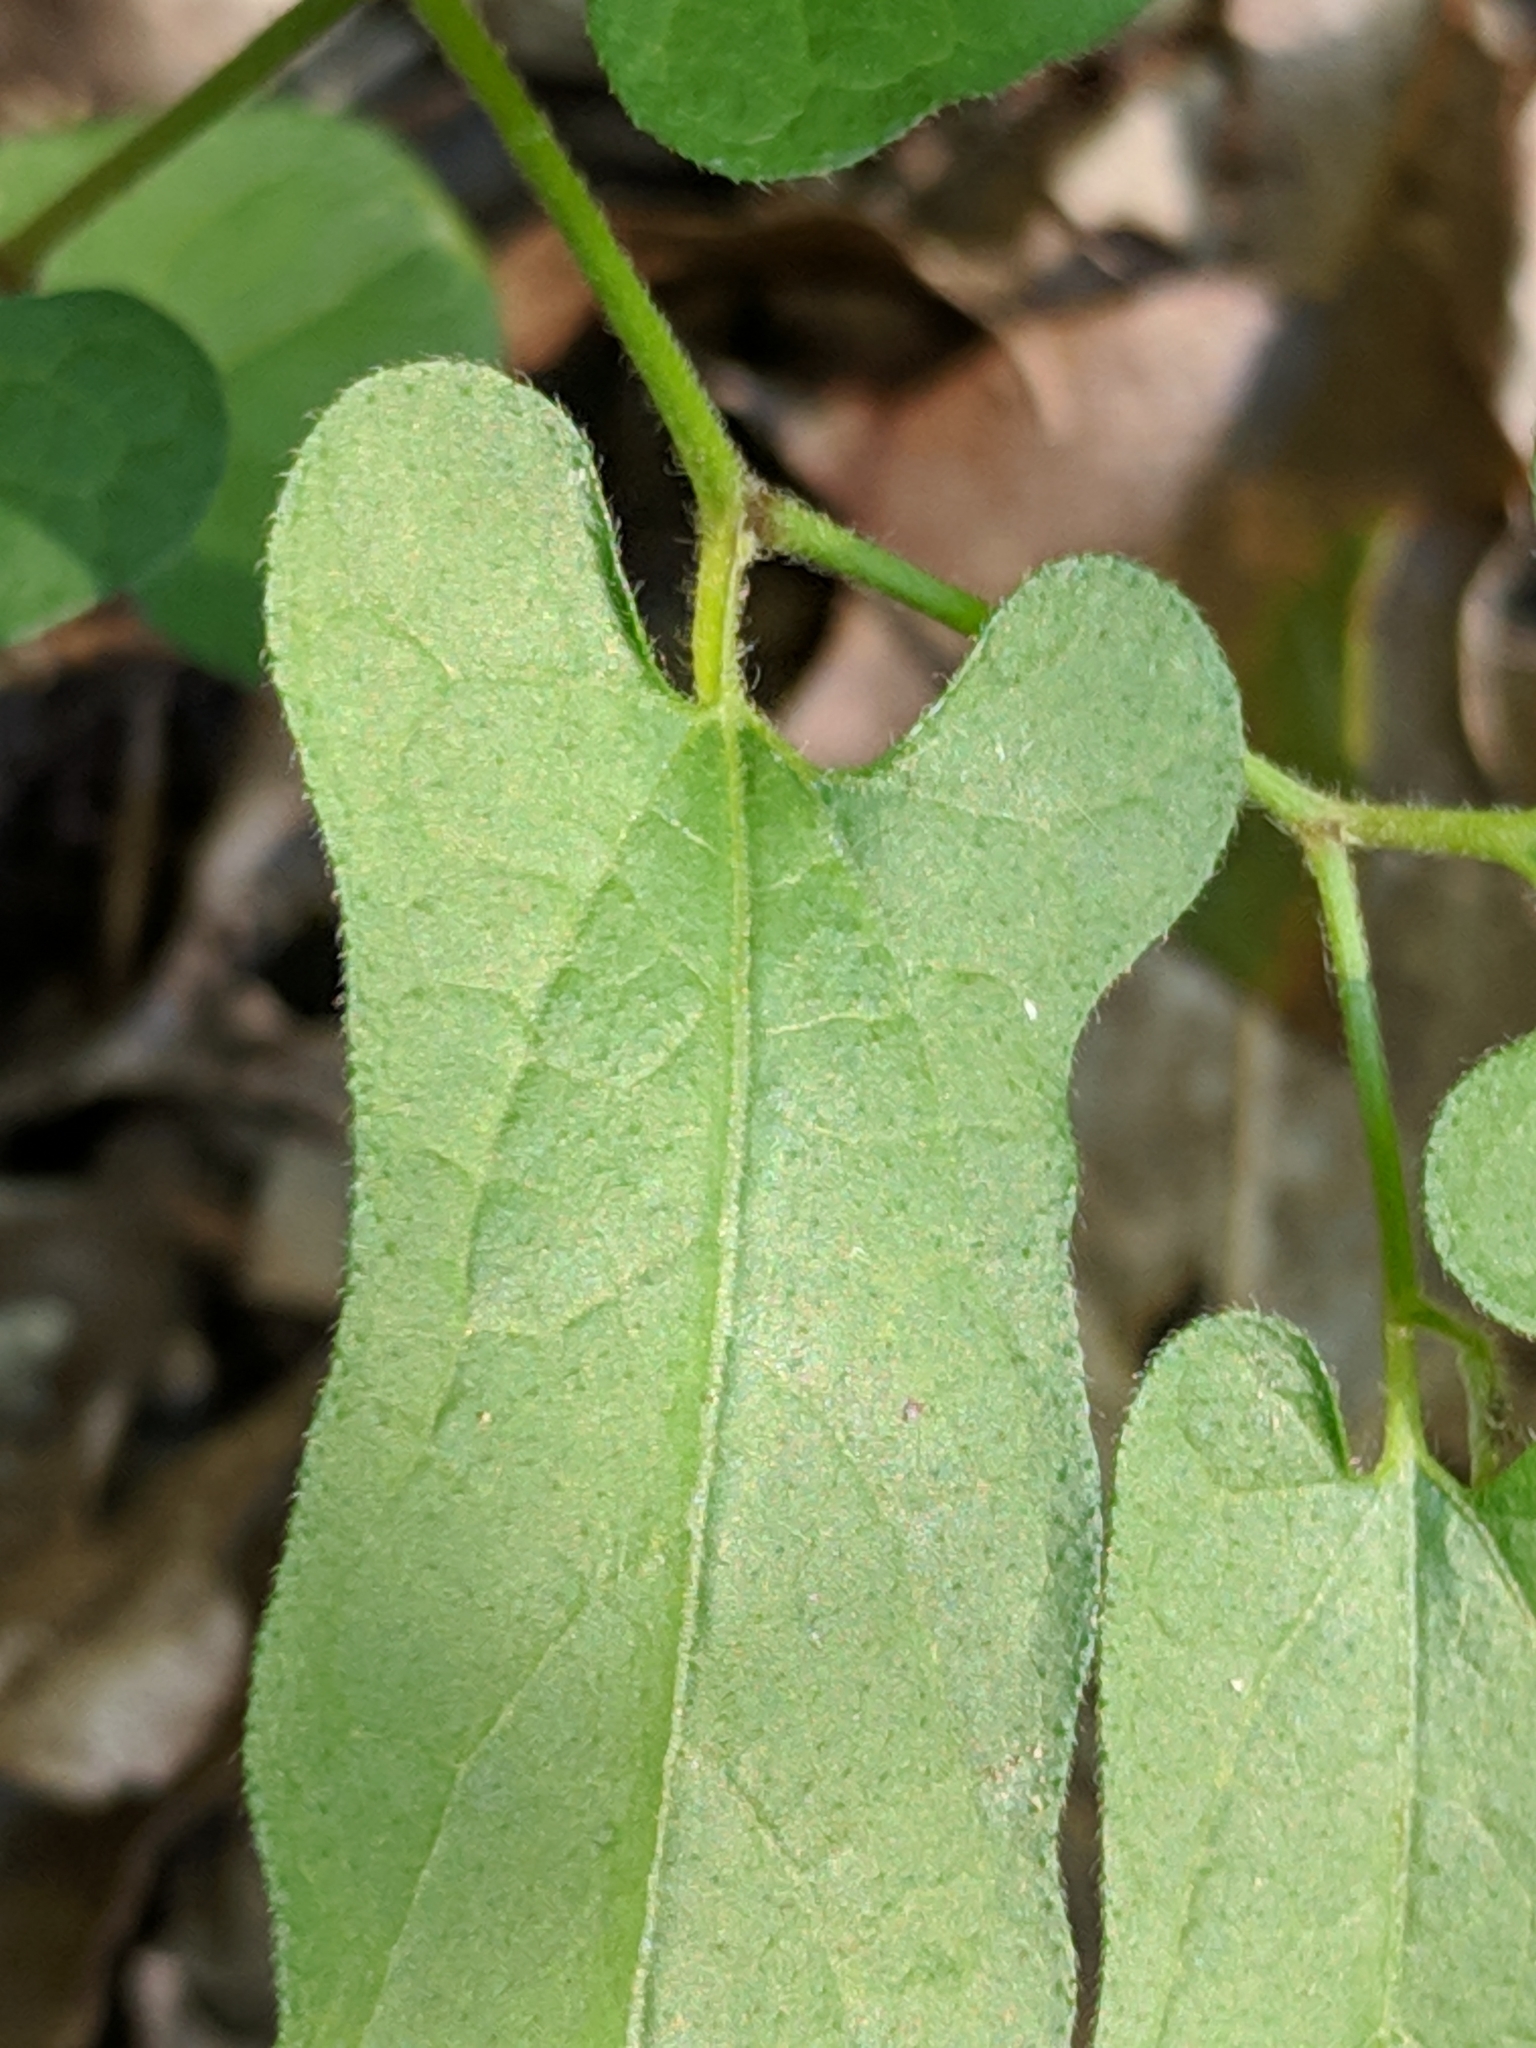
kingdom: Plantae
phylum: Tracheophyta
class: Magnoliopsida
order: Piperales
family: Aristolochiaceae
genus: Endodeca
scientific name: Endodeca serpentaria
